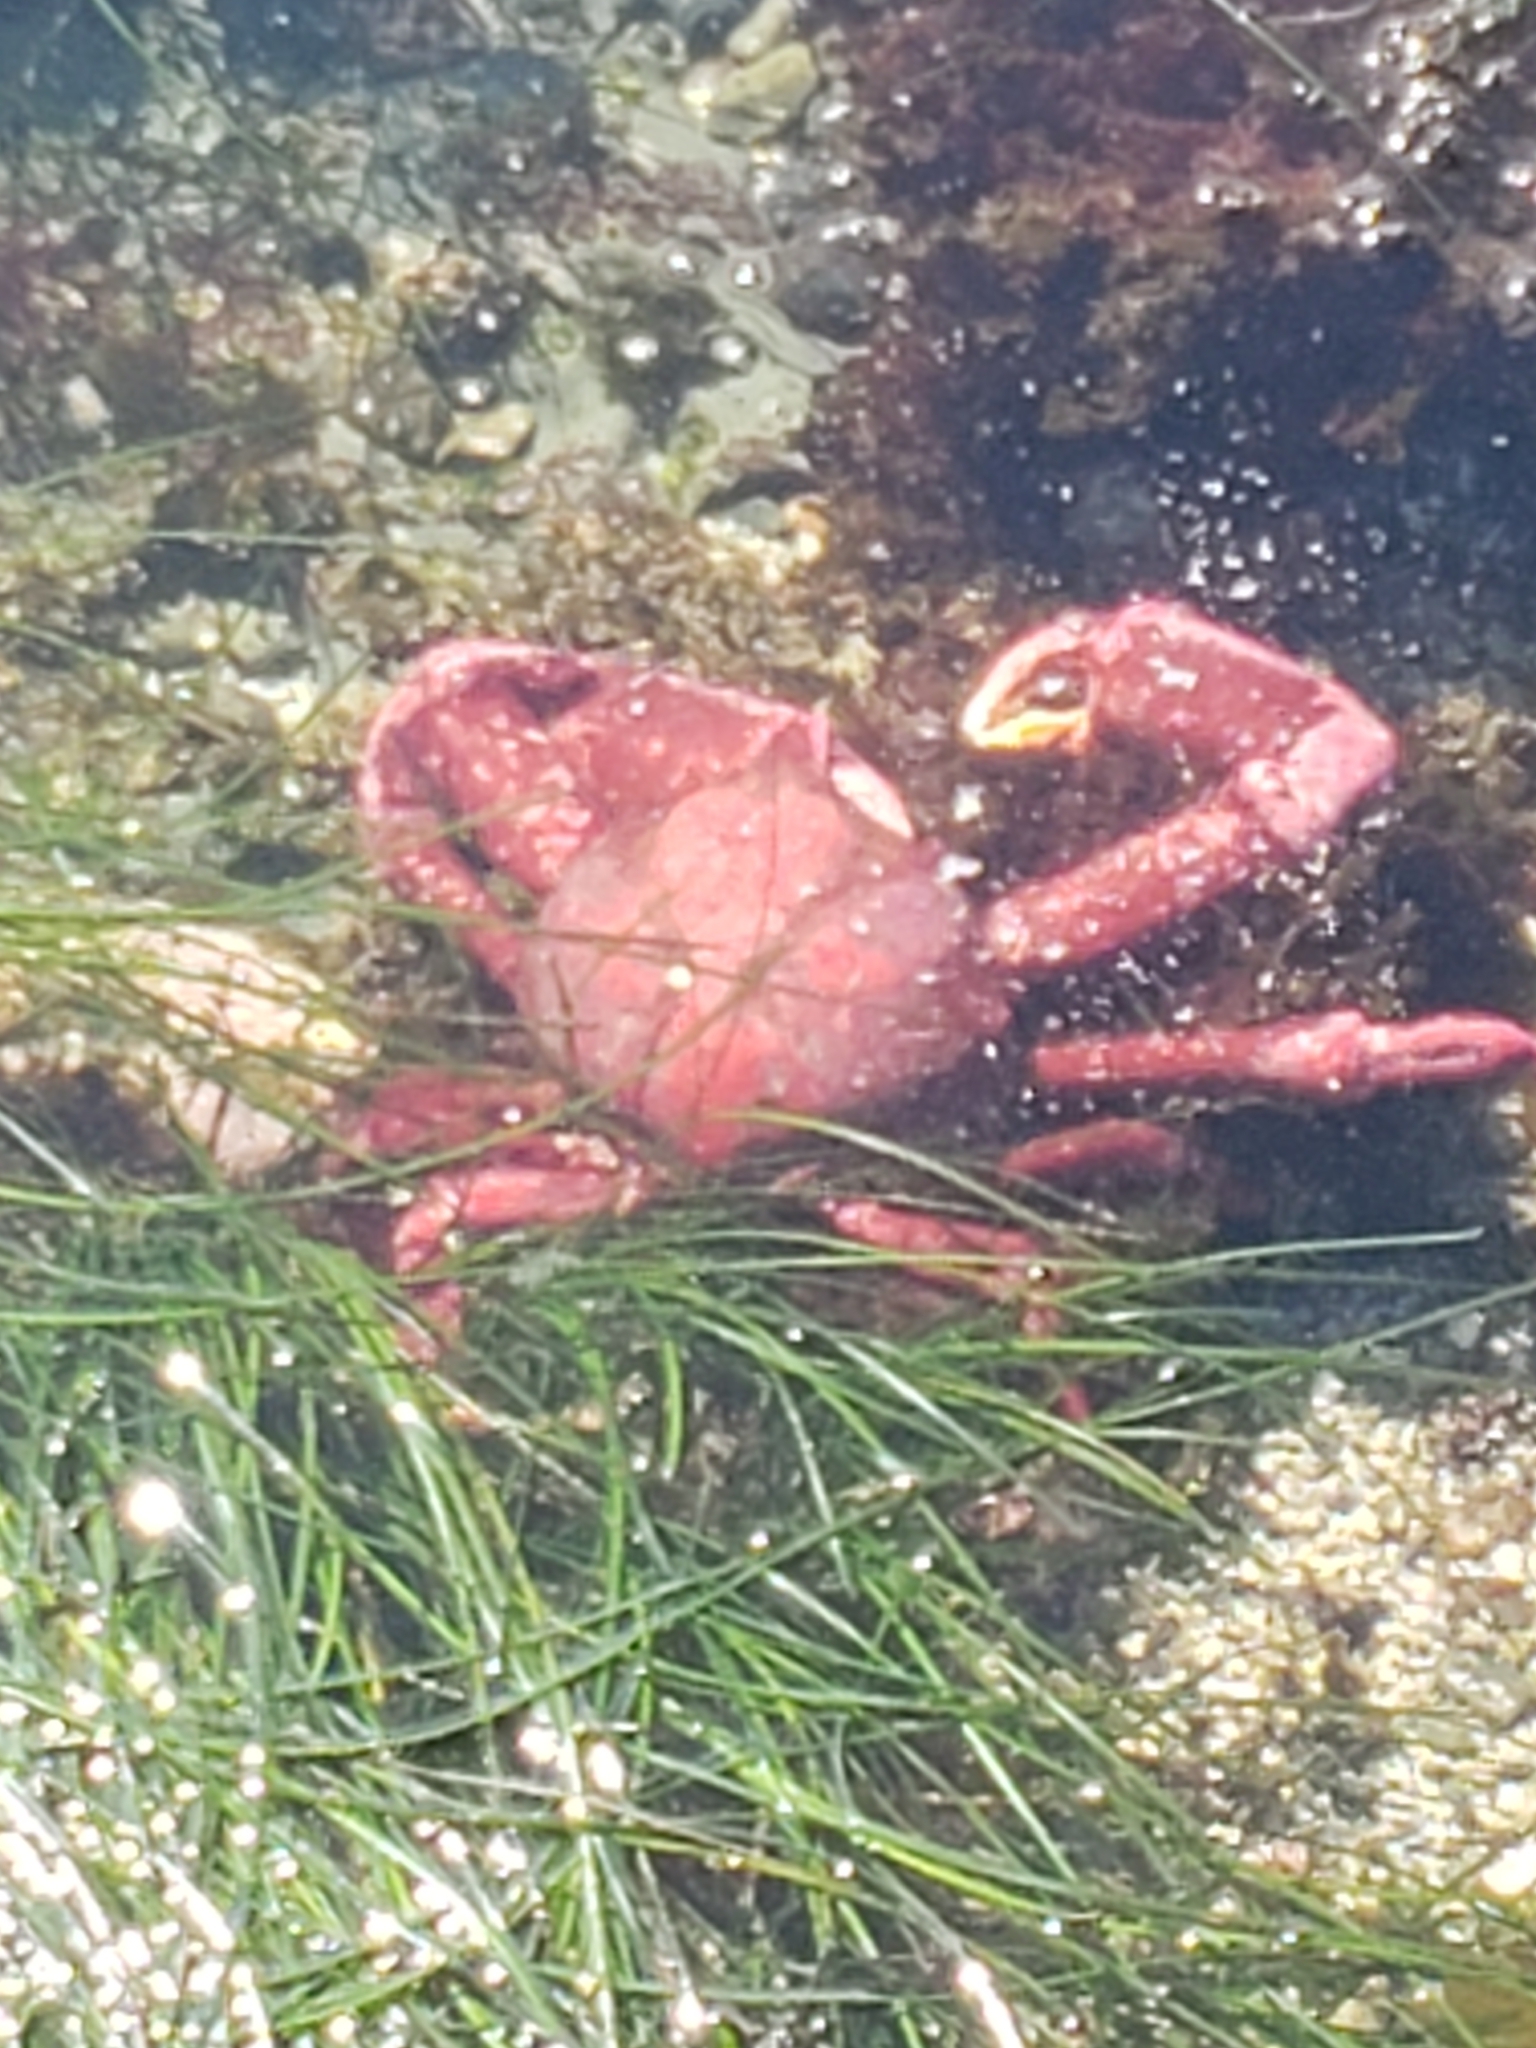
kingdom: Animalia
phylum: Arthropoda
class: Malacostraca
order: Decapoda
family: Epialtidae
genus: Taliepus
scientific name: Taliepus nuttallii
